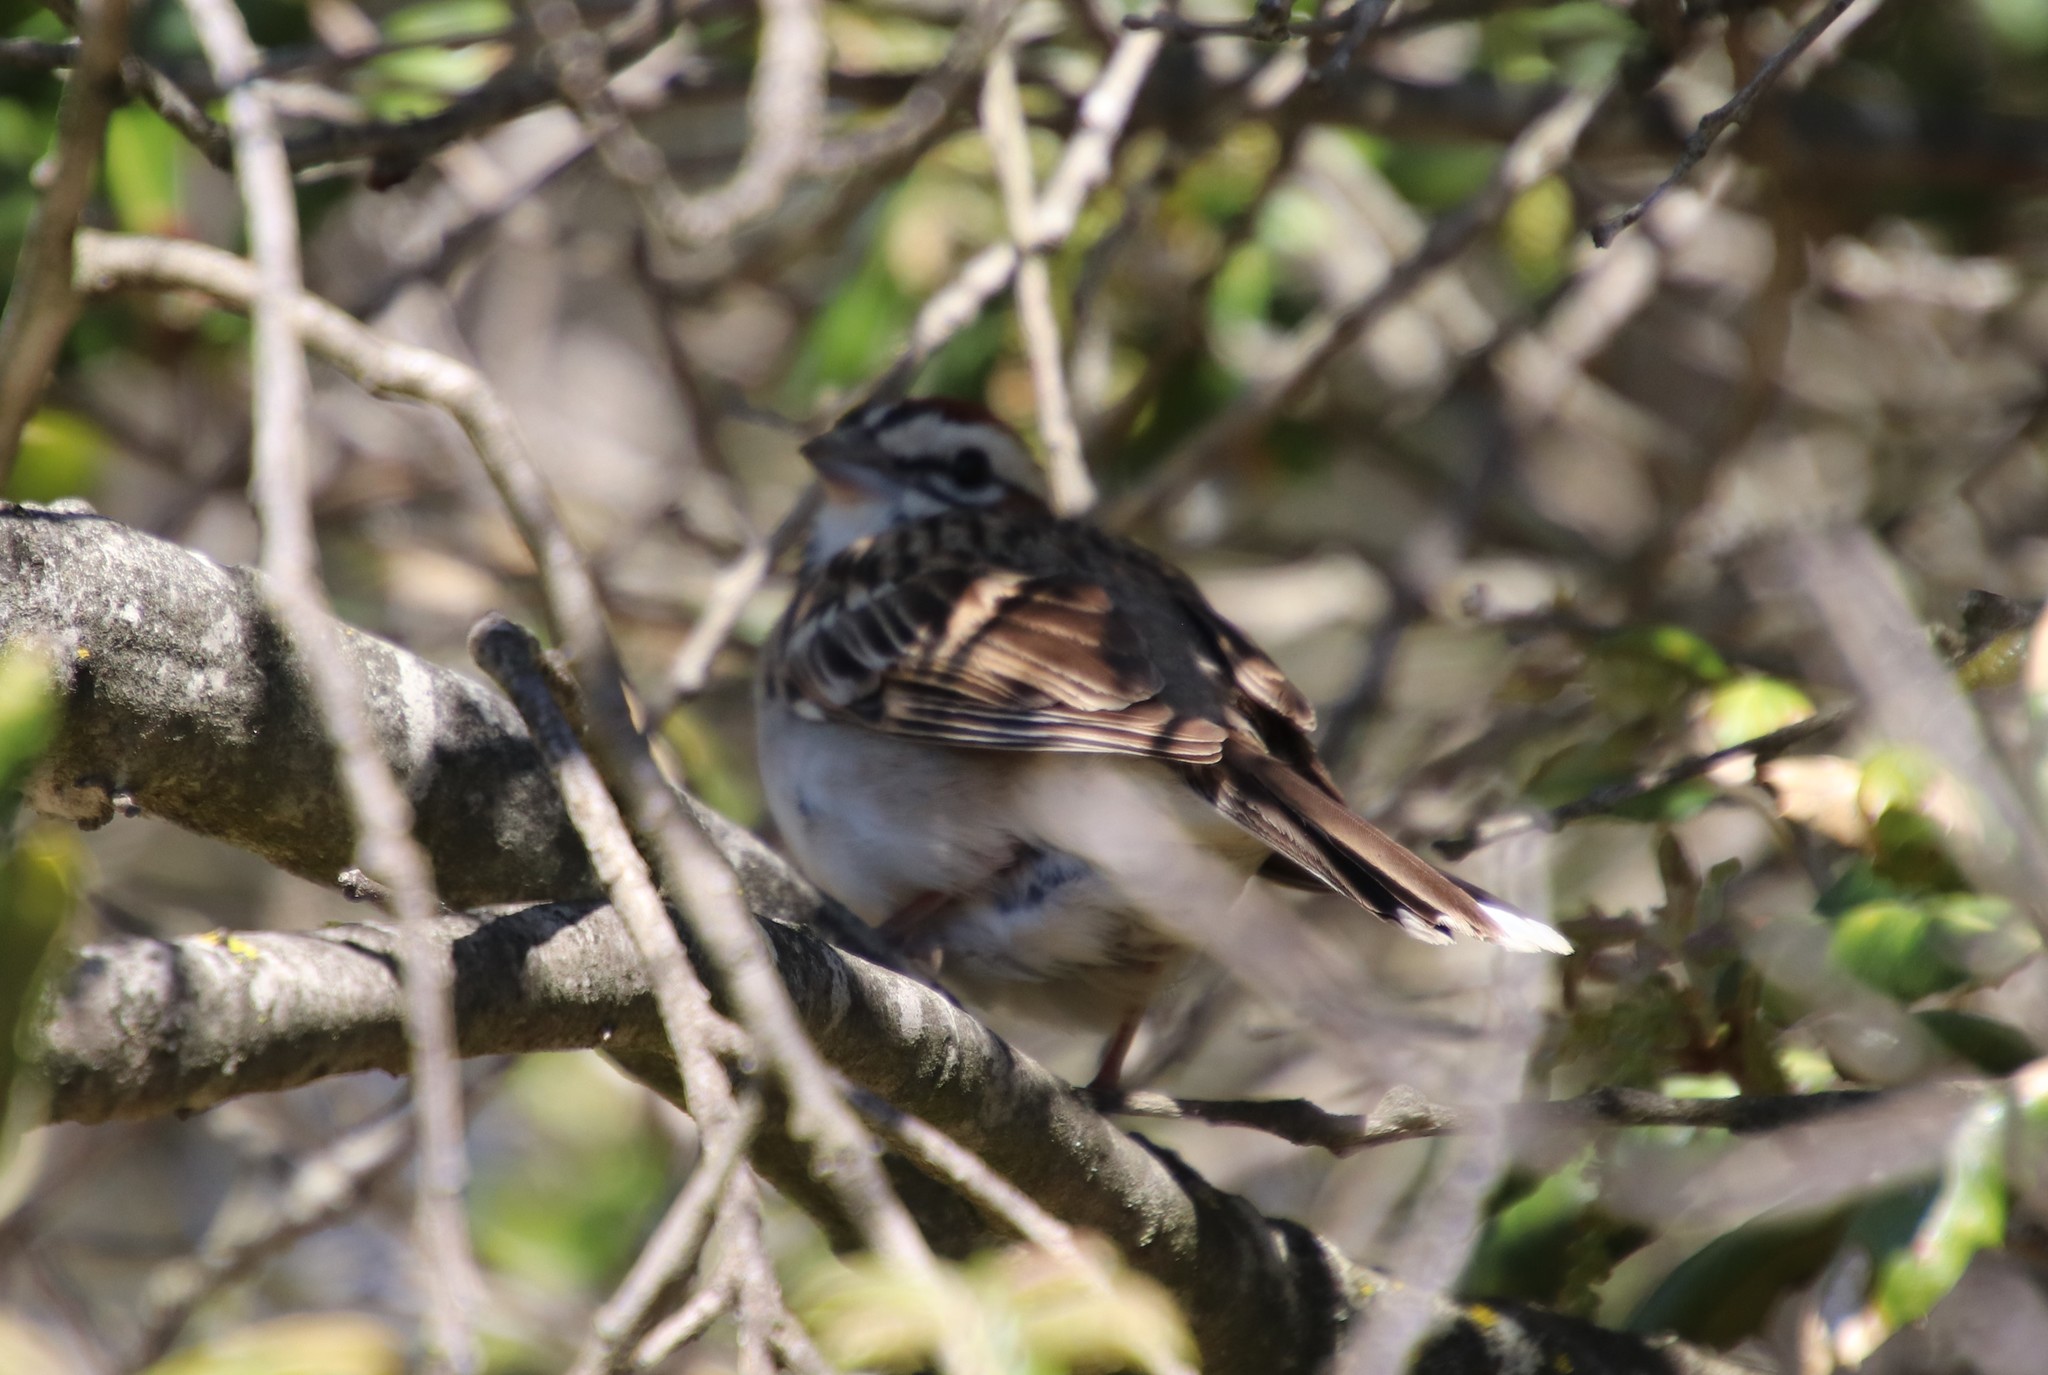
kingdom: Animalia
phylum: Chordata
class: Aves
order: Passeriformes
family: Passerellidae
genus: Chondestes
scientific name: Chondestes grammacus
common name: Lark sparrow
